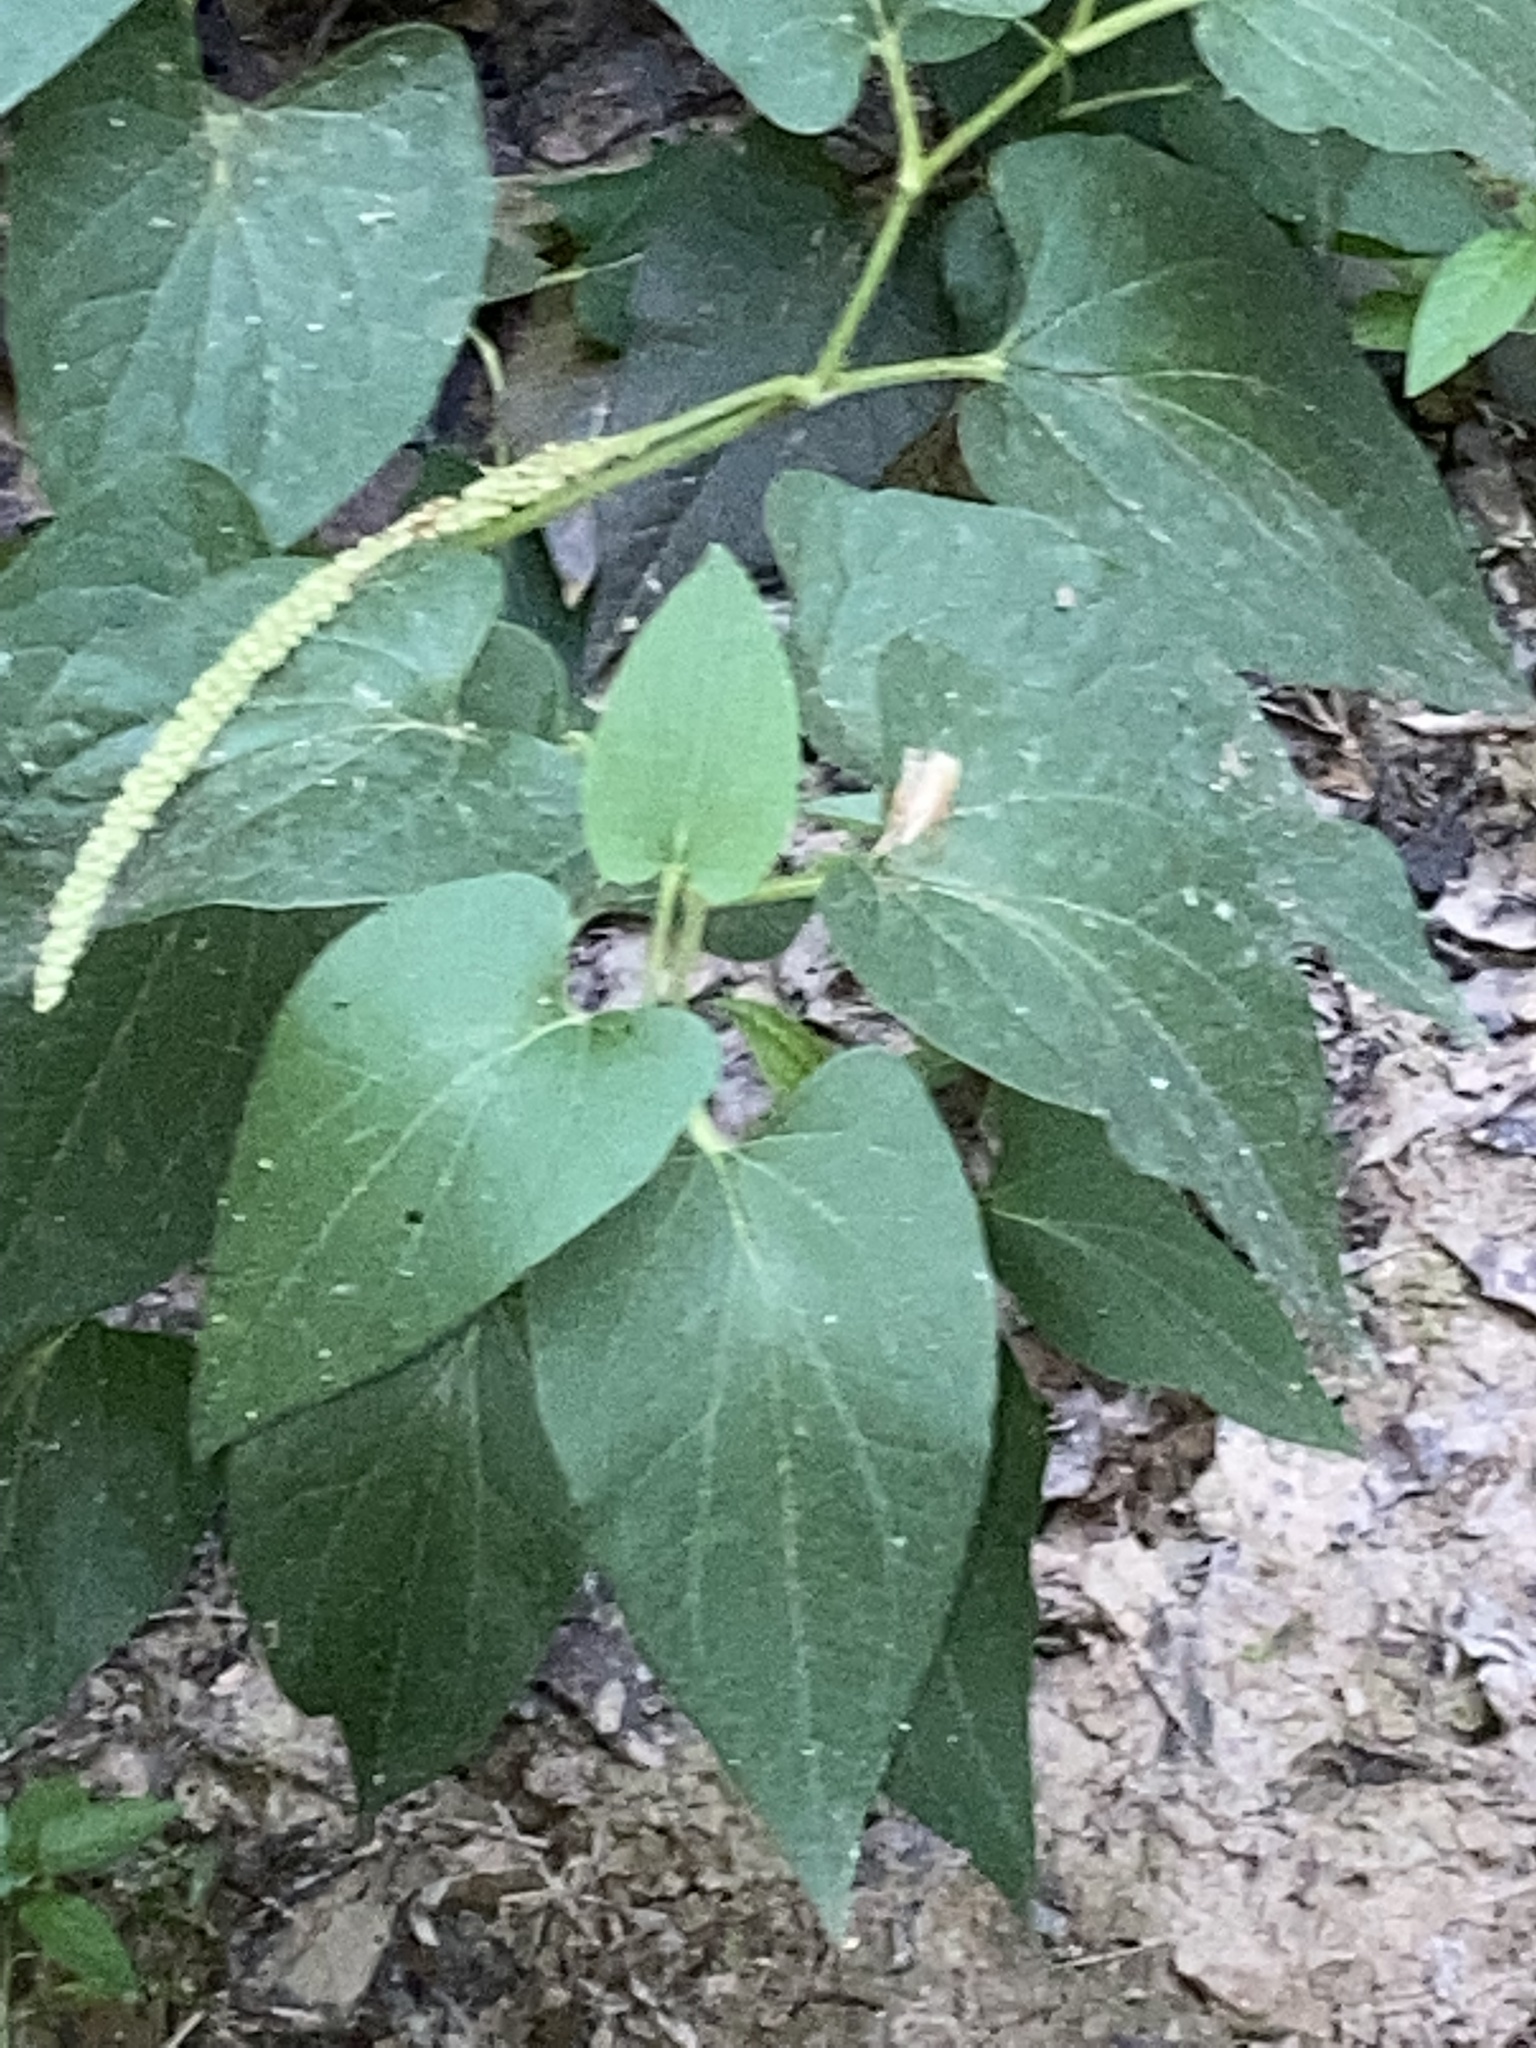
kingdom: Plantae
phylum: Tracheophyta
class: Magnoliopsida
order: Piperales
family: Saururaceae
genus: Saururus
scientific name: Saururus cernuus
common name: Lizard's-tail
